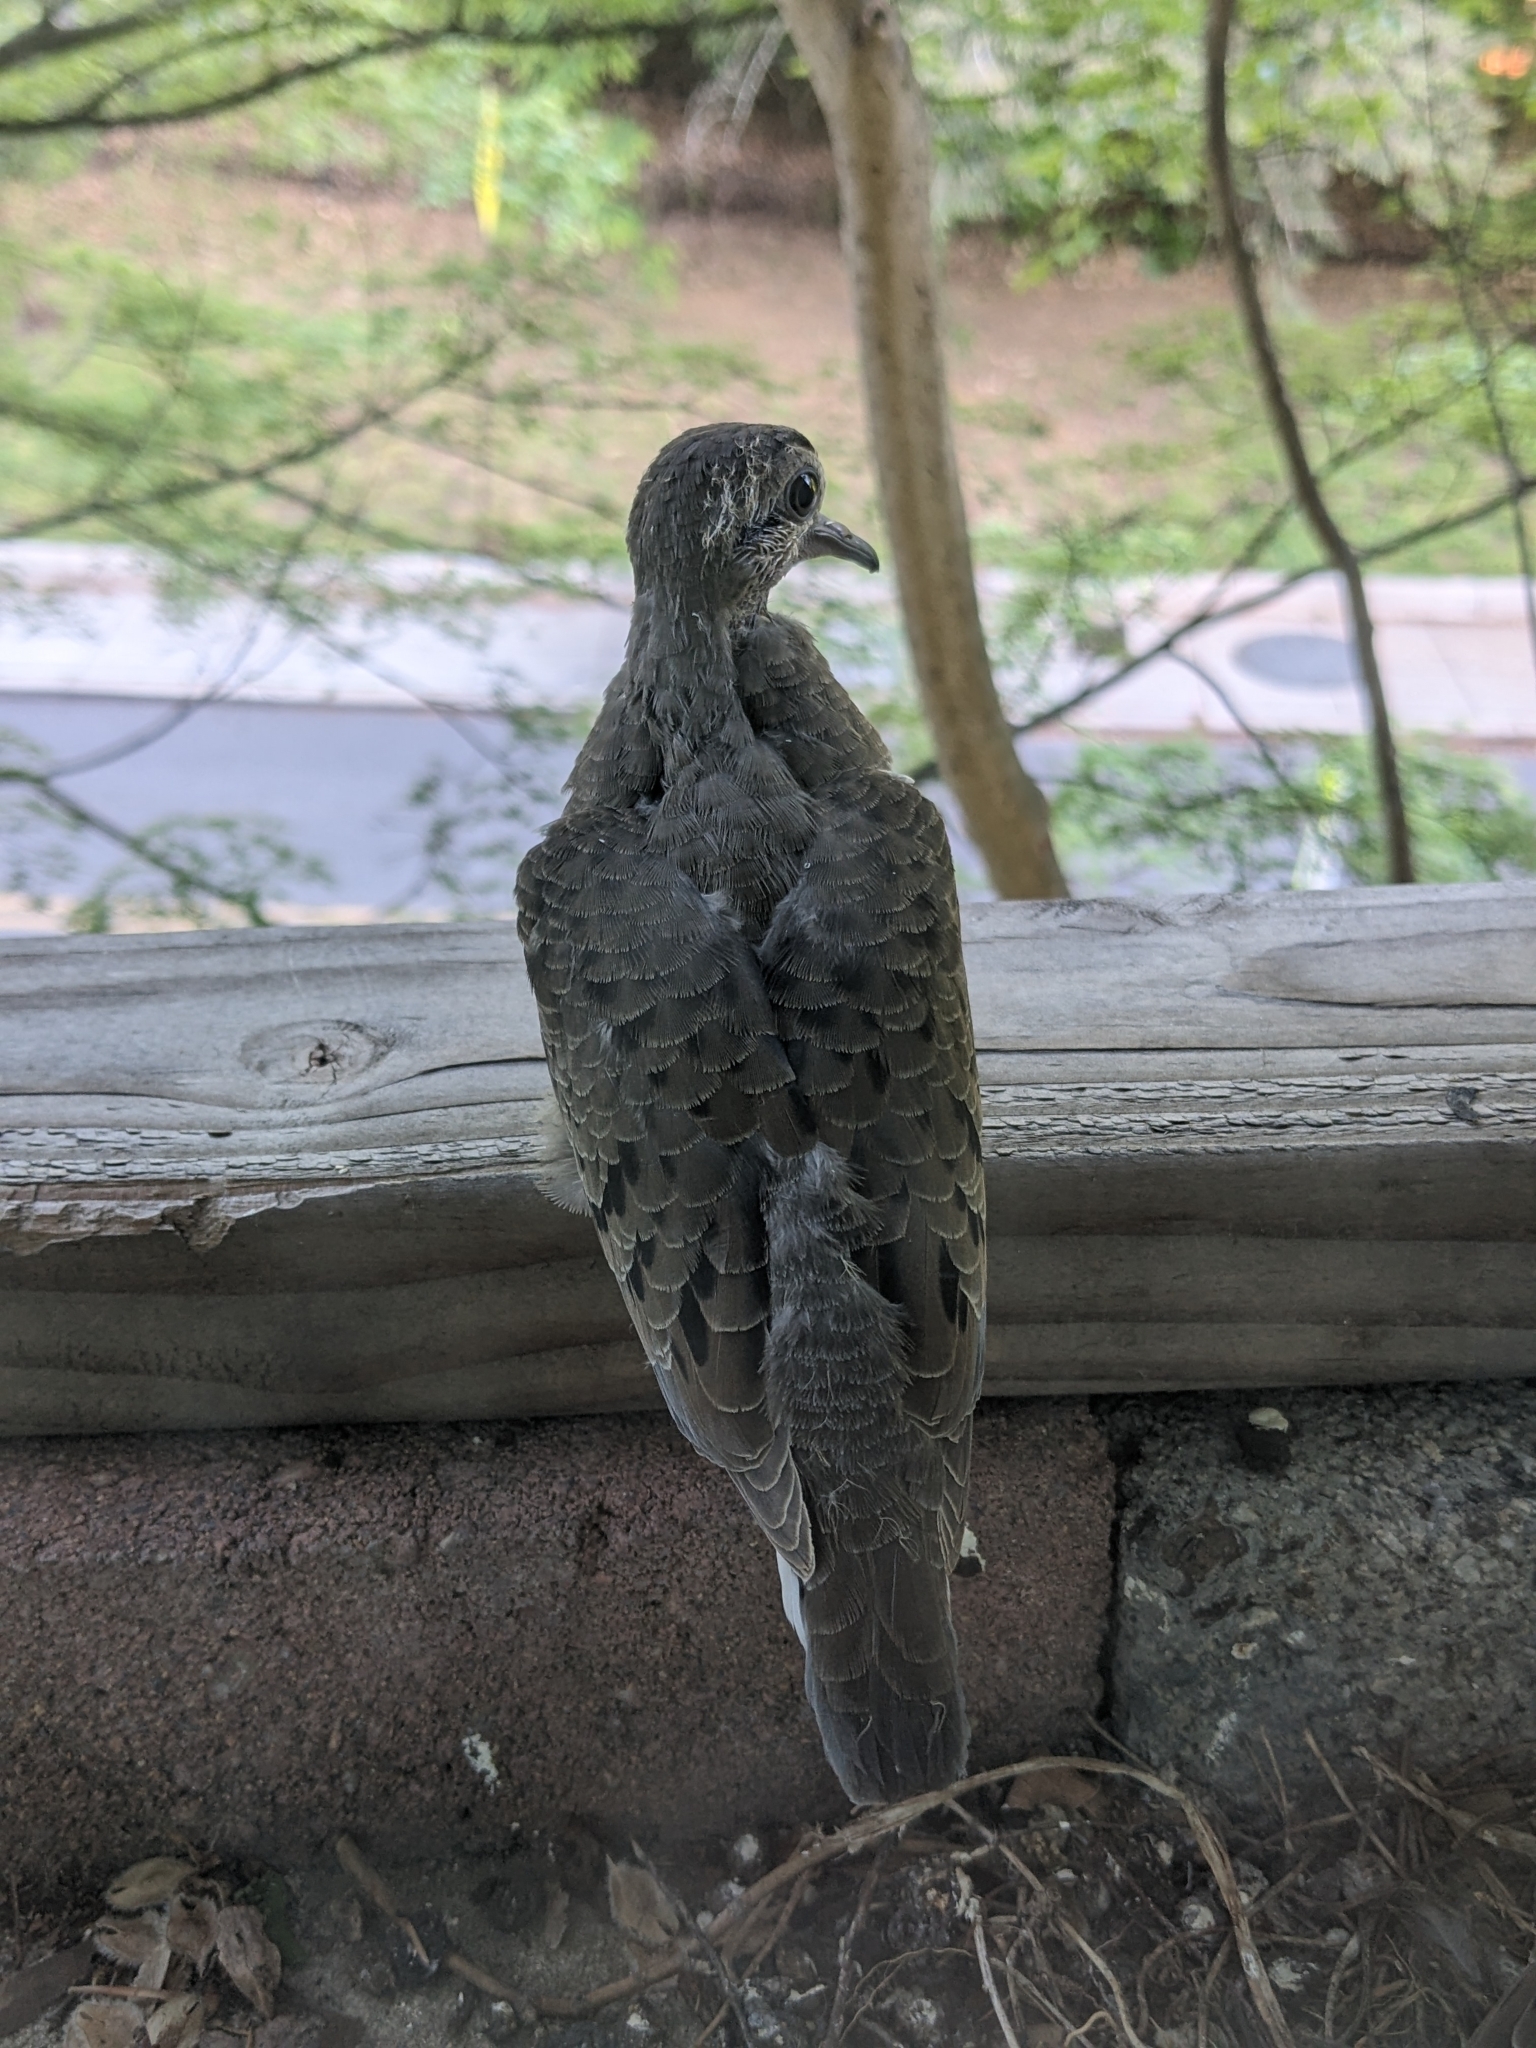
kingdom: Animalia
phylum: Chordata
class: Aves
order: Columbiformes
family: Columbidae
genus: Zenaida
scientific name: Zenaida macroura
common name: Mourning dove
